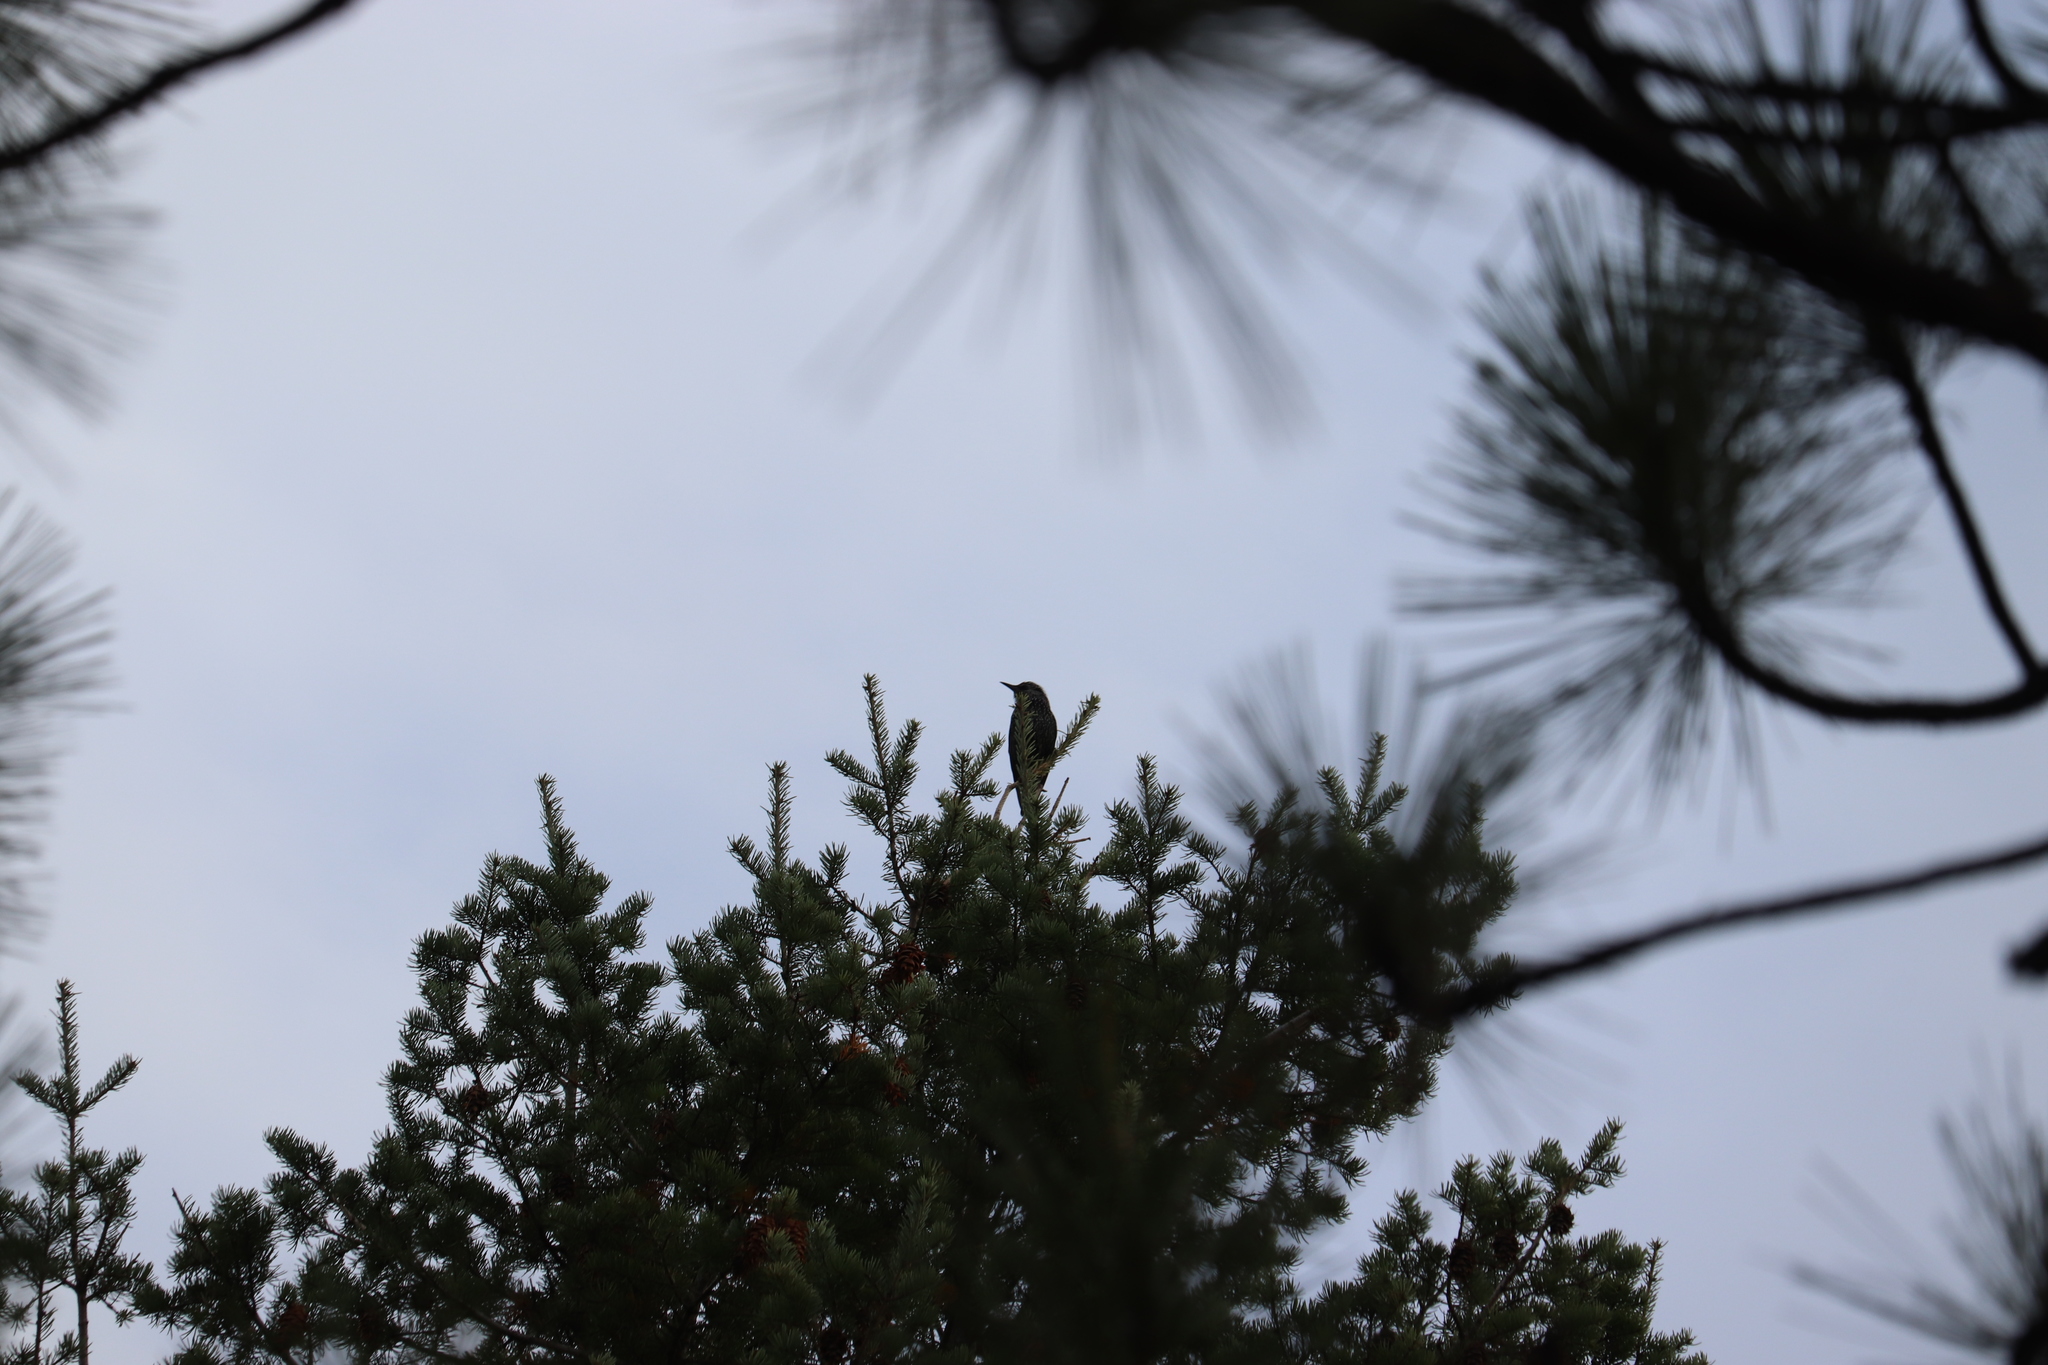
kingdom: Animalia
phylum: Chordata
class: Aves
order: Passeriformes
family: Sturnidae
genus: Sturnus
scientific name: Sturnus vulgaris
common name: Common starling
